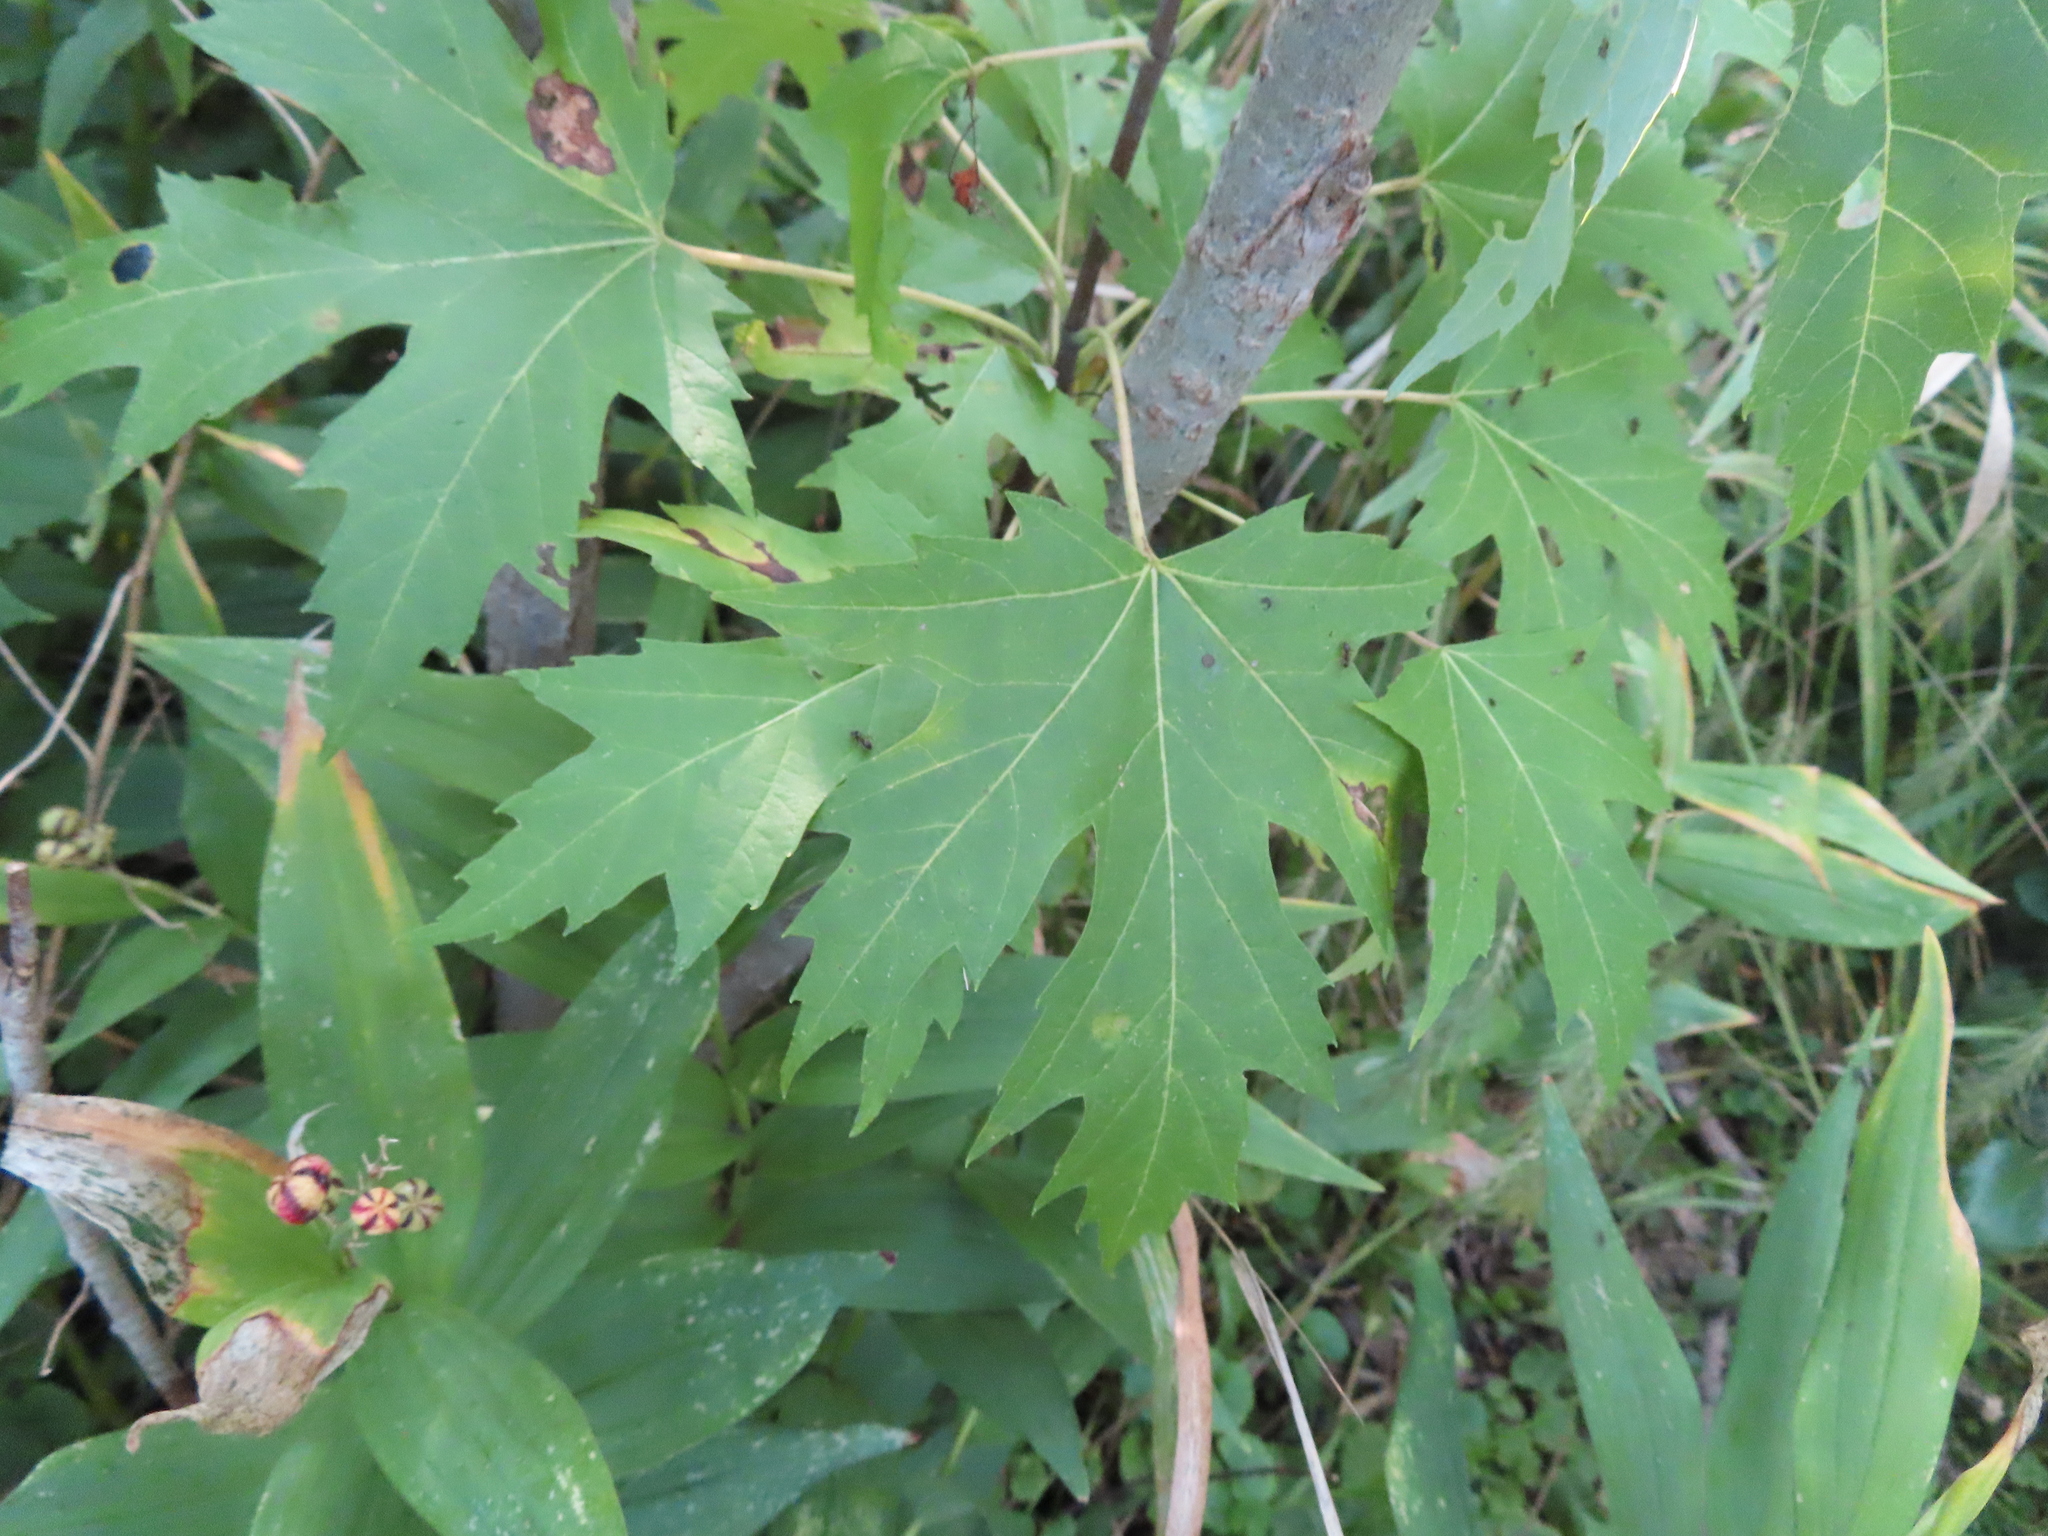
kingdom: Plantae
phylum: Tracheophyta
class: Magnoliopsida
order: Sapindales
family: Sapindaceae
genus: Acer
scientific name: Acer saccharinum
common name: Silver maple
